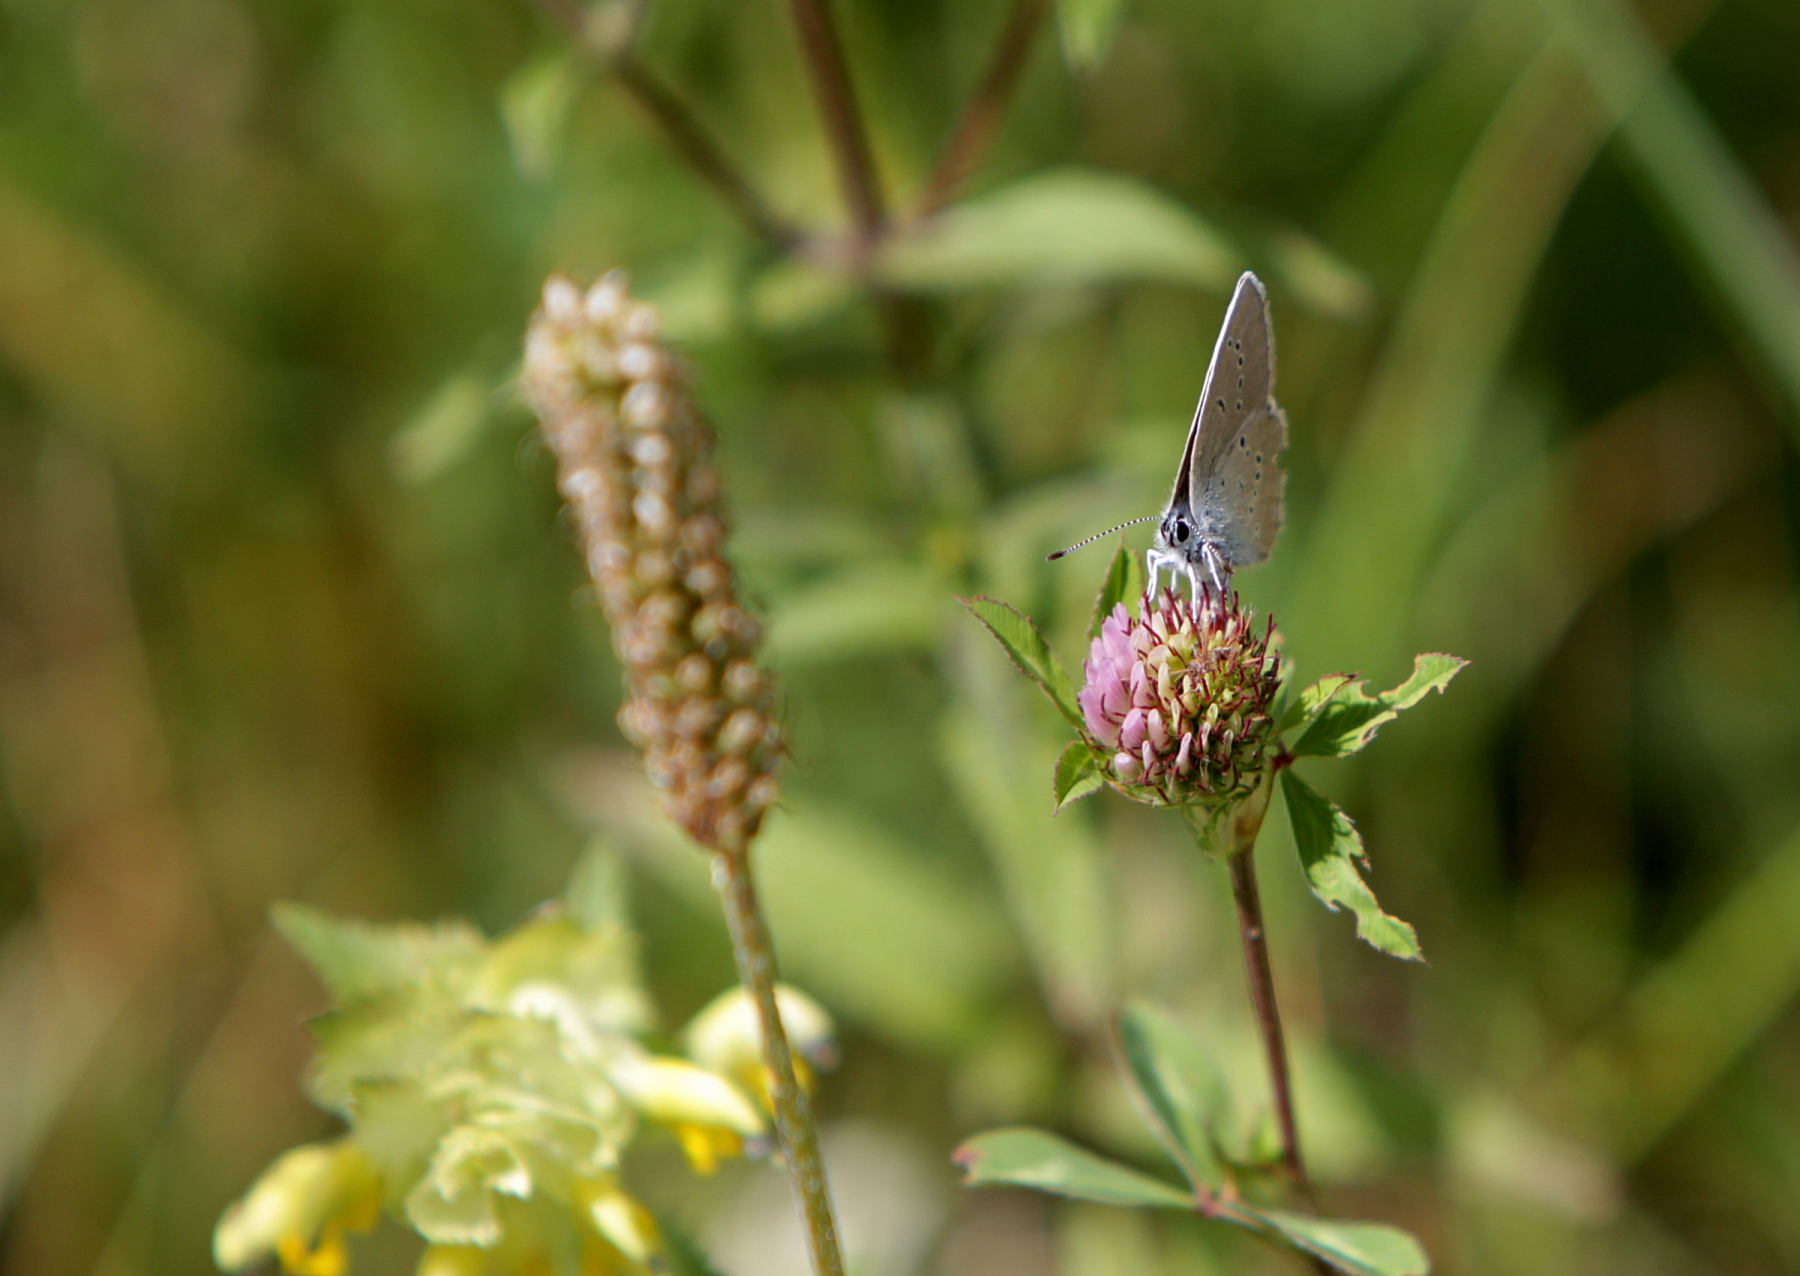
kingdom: Animalia
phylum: Arthropoda
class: Insecta
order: Lepidoptera
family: Lycaenidae
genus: Cyaniris
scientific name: Cyaniris semiargus
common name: Mazarine blue
